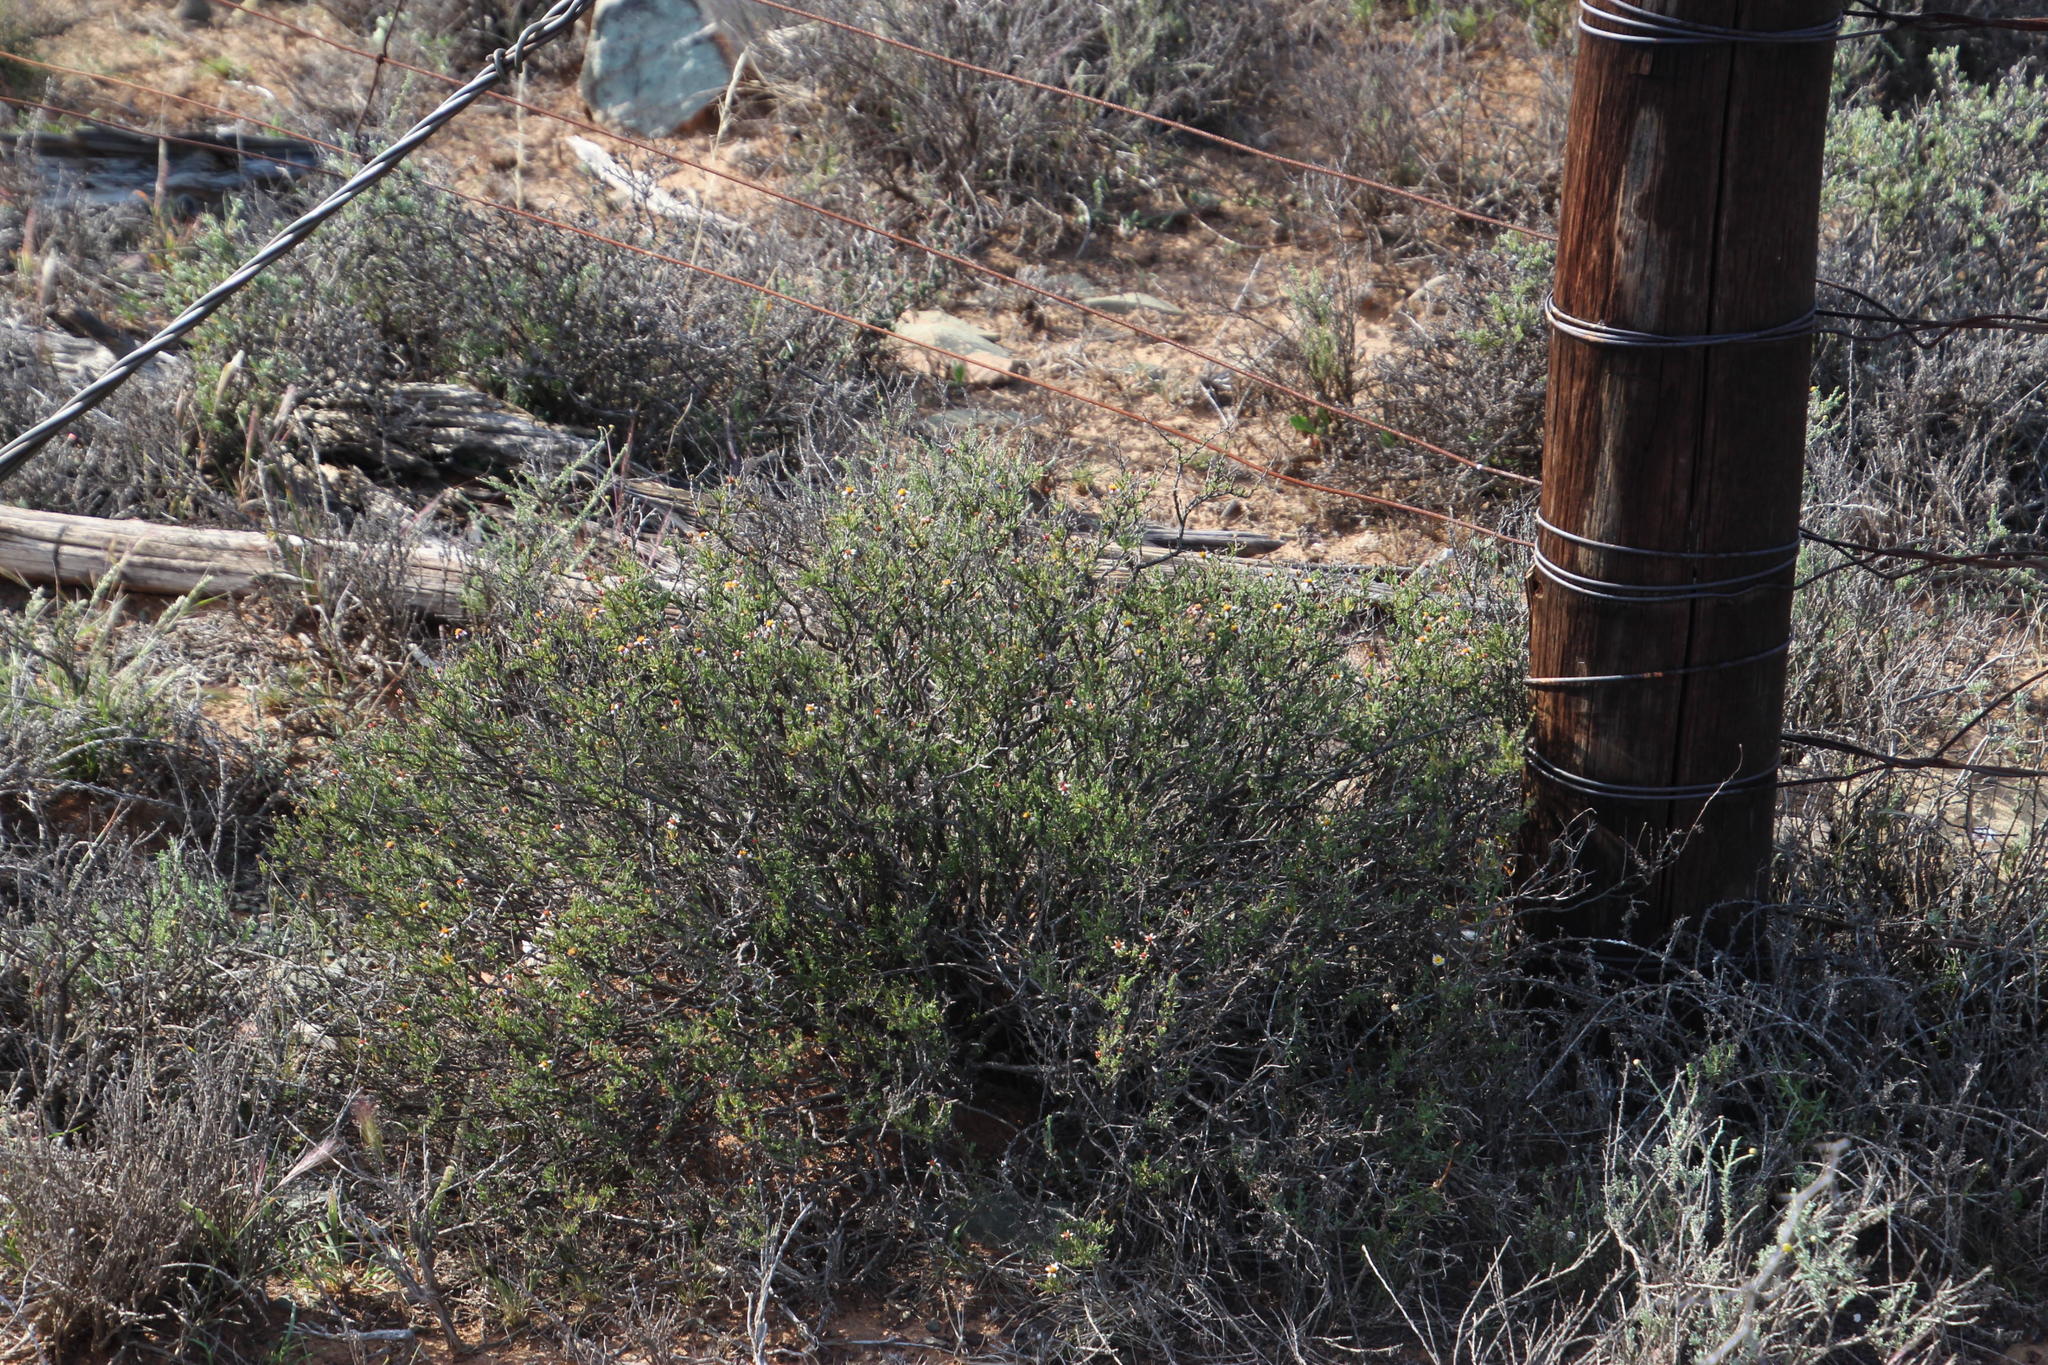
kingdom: Plantae
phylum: Tracheophyta
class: Magnoliopsida
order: Asterales
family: Asteraceae
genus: Phymaspermum
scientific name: Phymaspermum parvifolium
